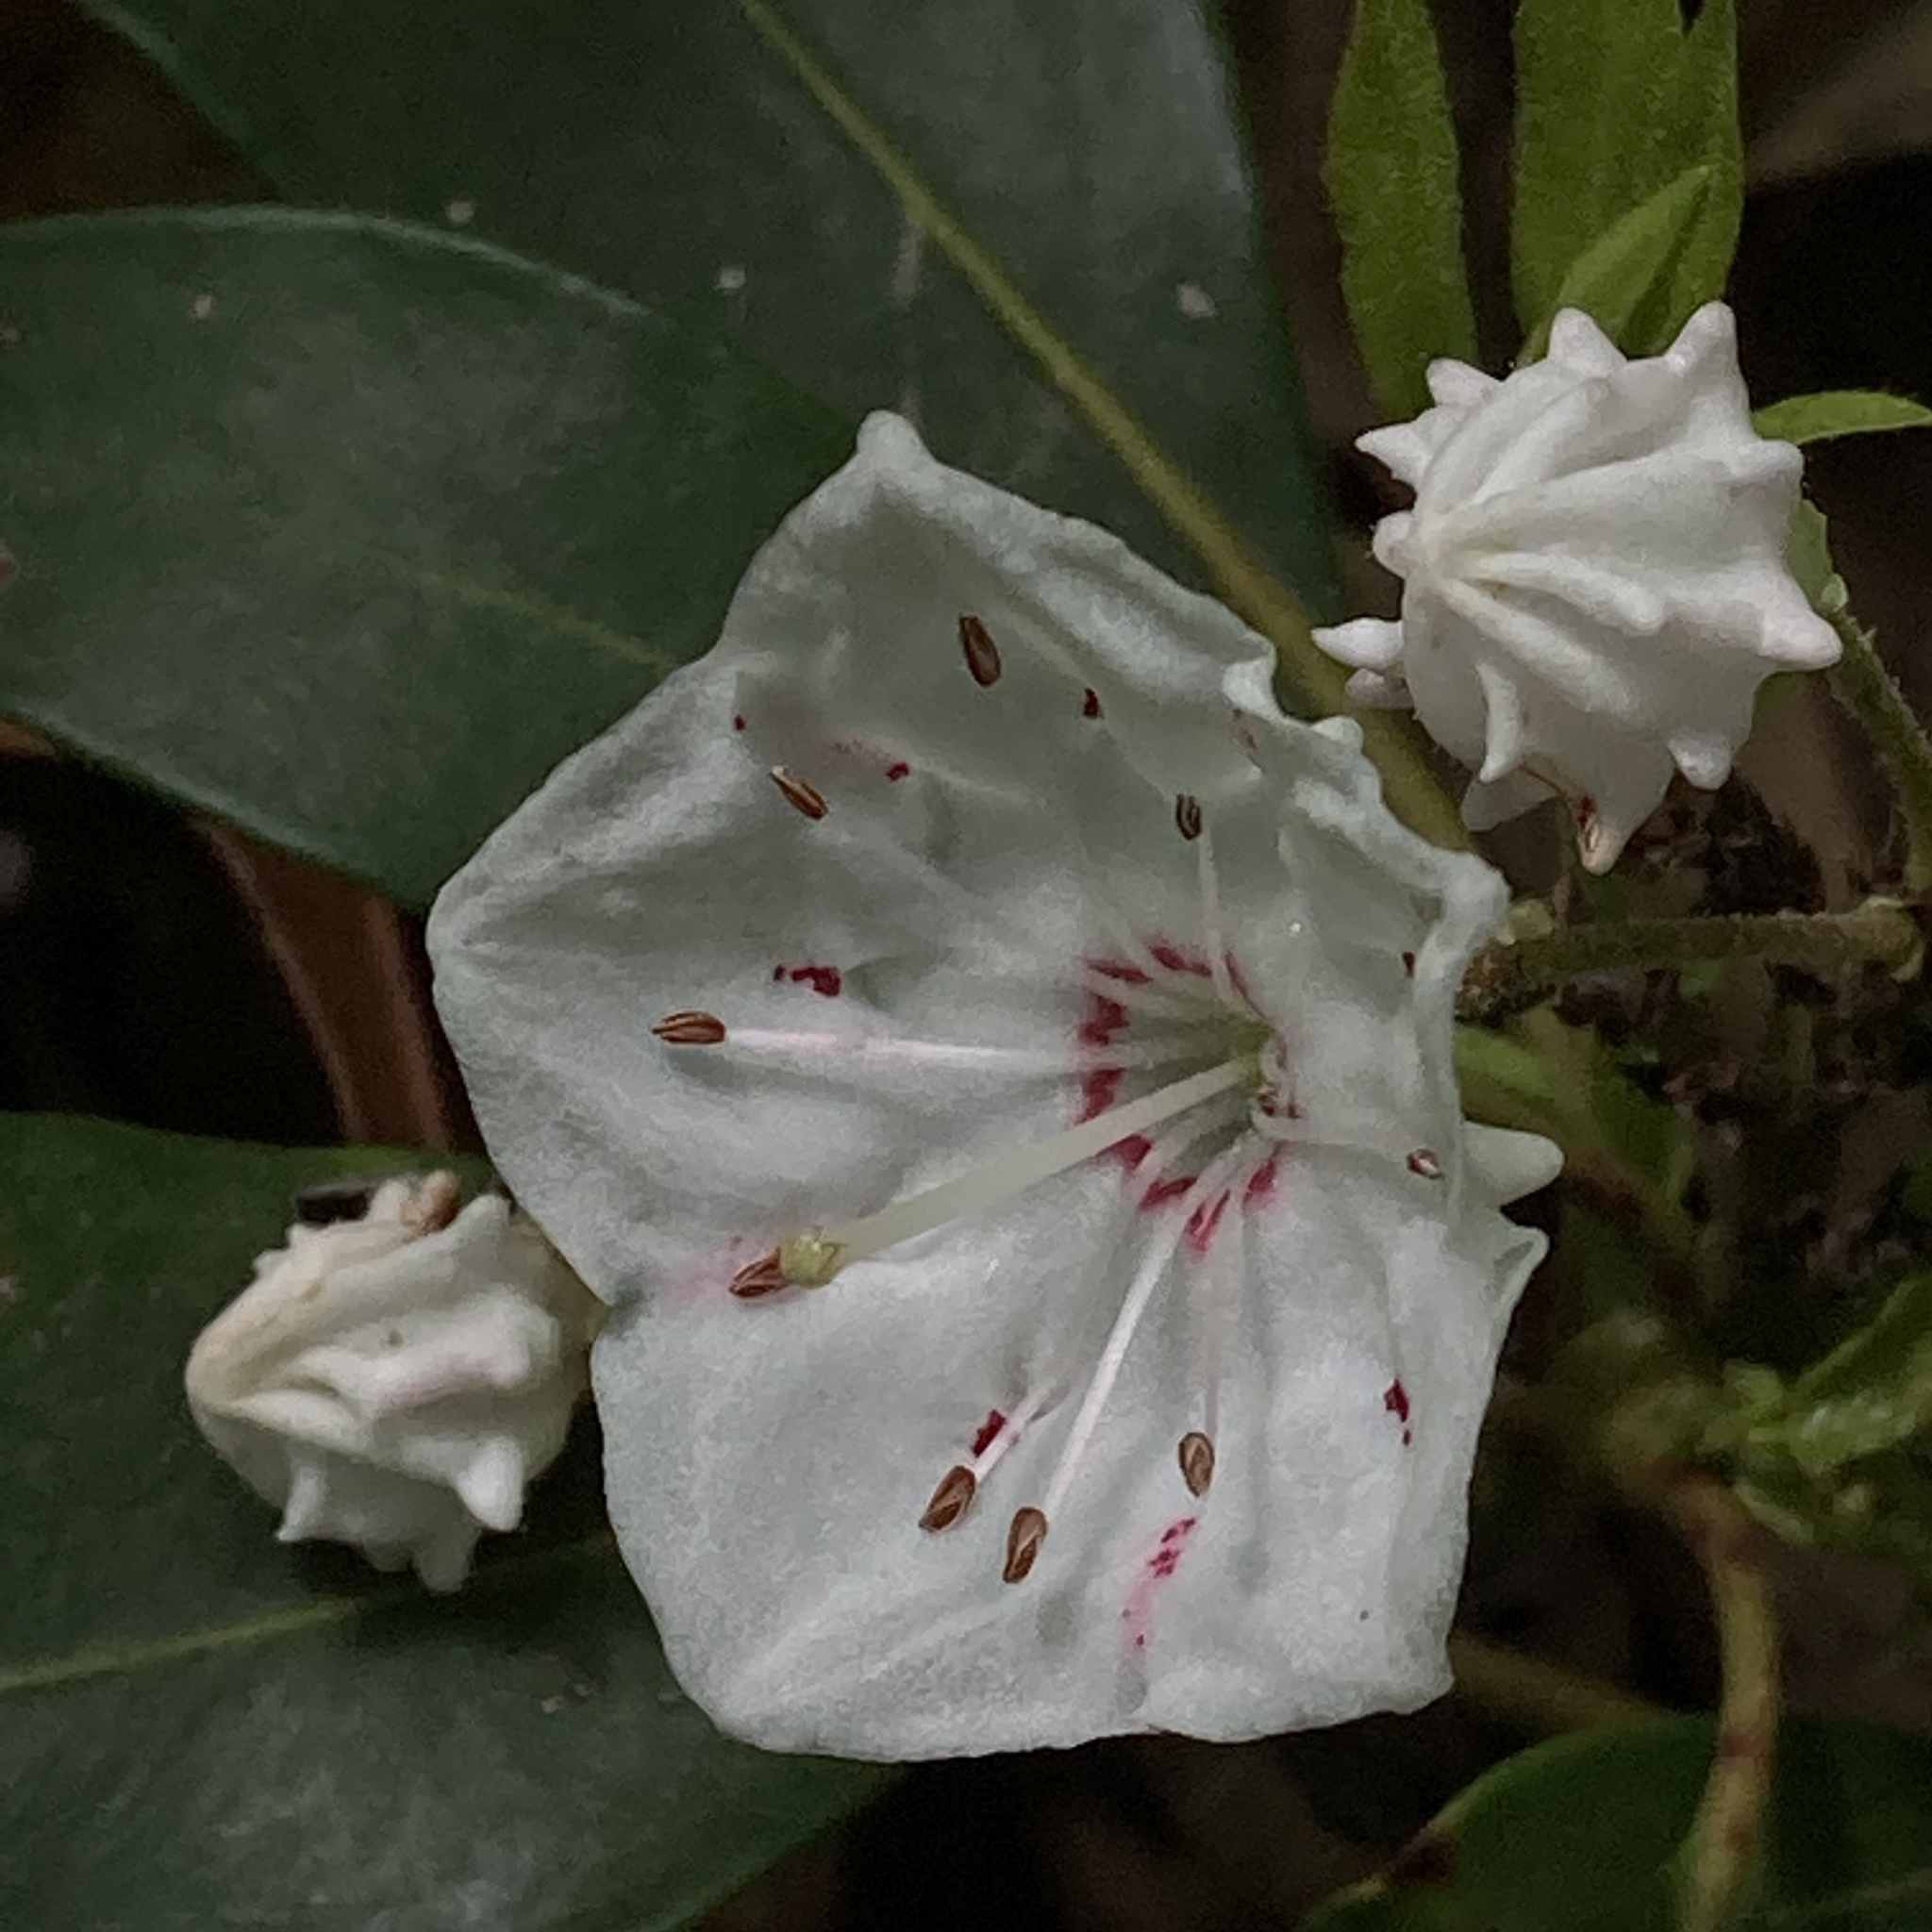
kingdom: Plantae
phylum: Tracheophyta
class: Magnoliopsida
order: Ericales
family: Ericaceae
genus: Kalmia
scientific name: Kalmia latifolia
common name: Mountain-laurel
